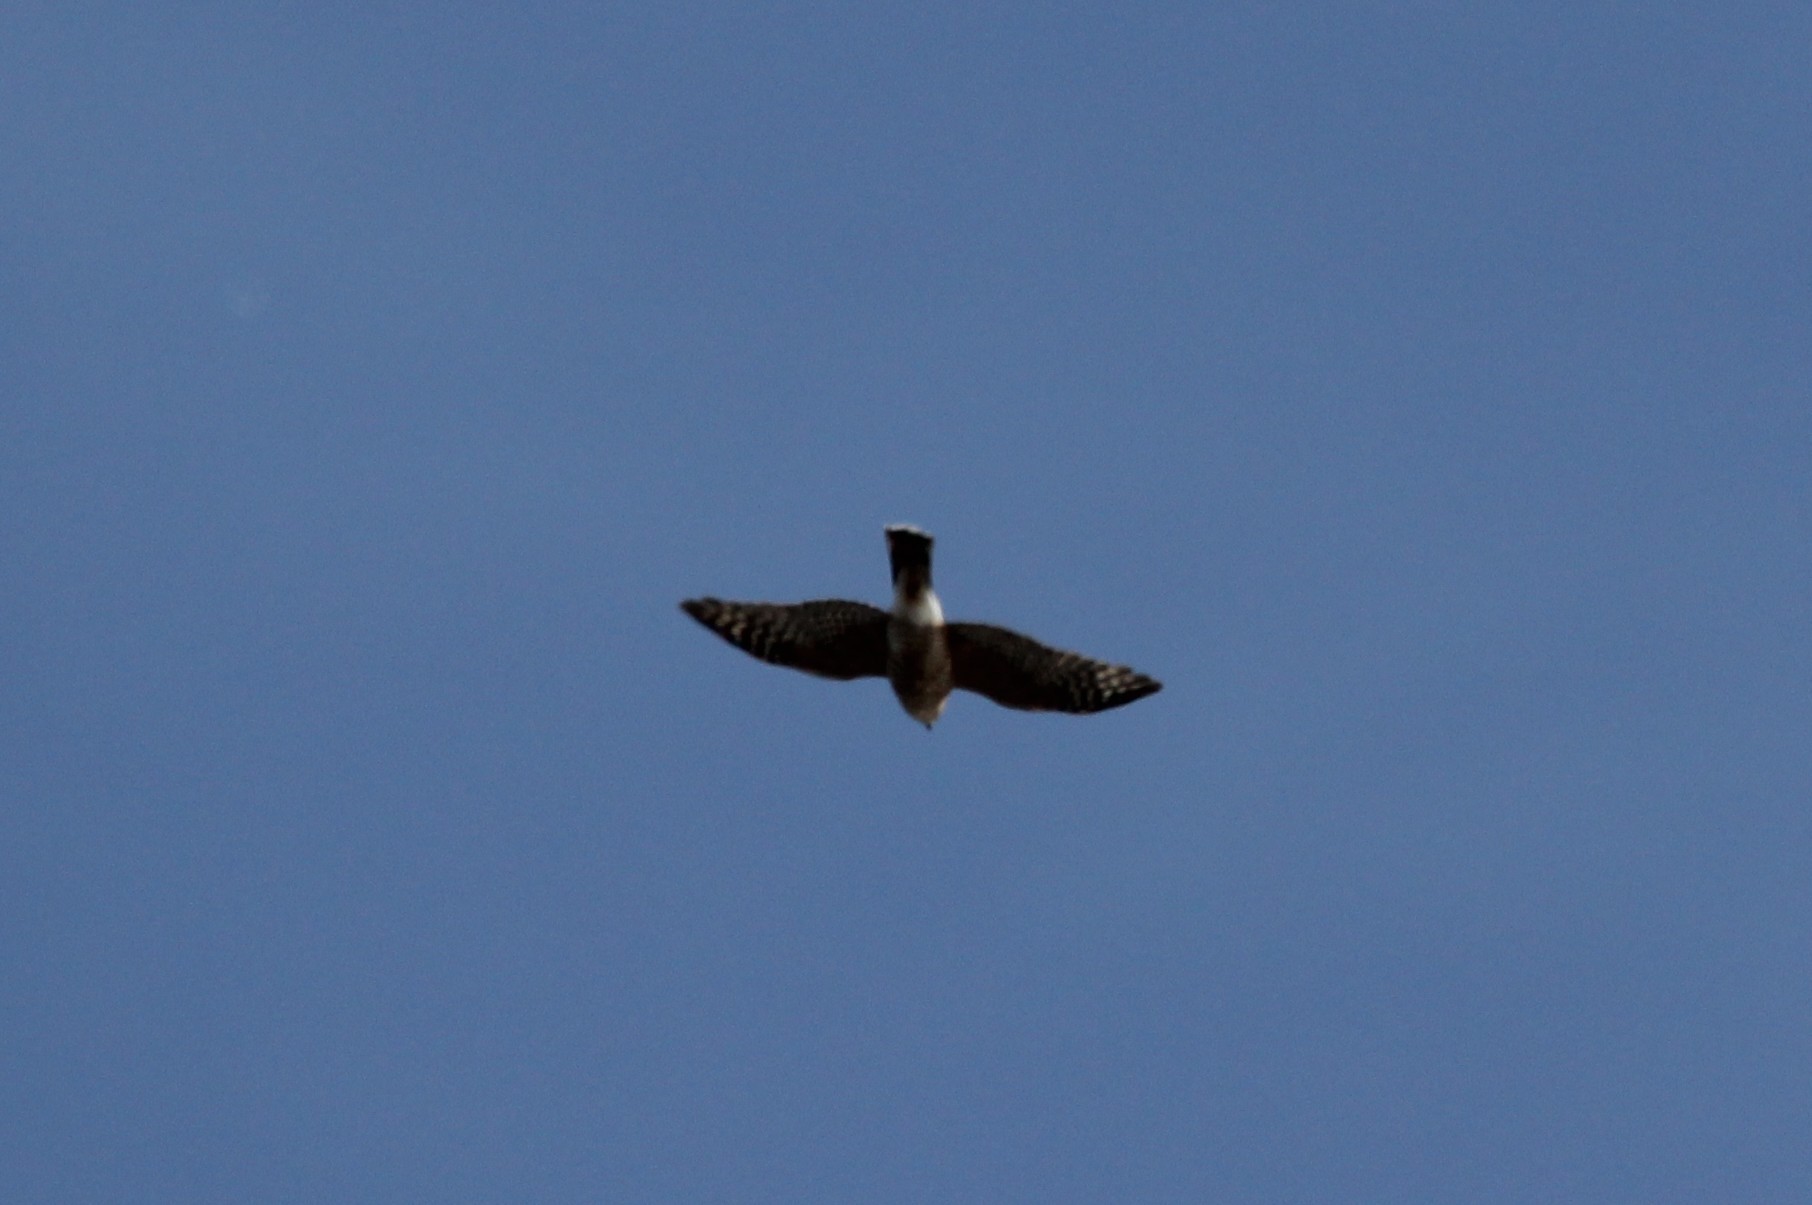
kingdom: Animalia
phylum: Chordata
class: Aves
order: Accipitriformes
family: Accipitridae
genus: Accipiter
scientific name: Accipiter striatus
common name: Sharp-shinned hawk
